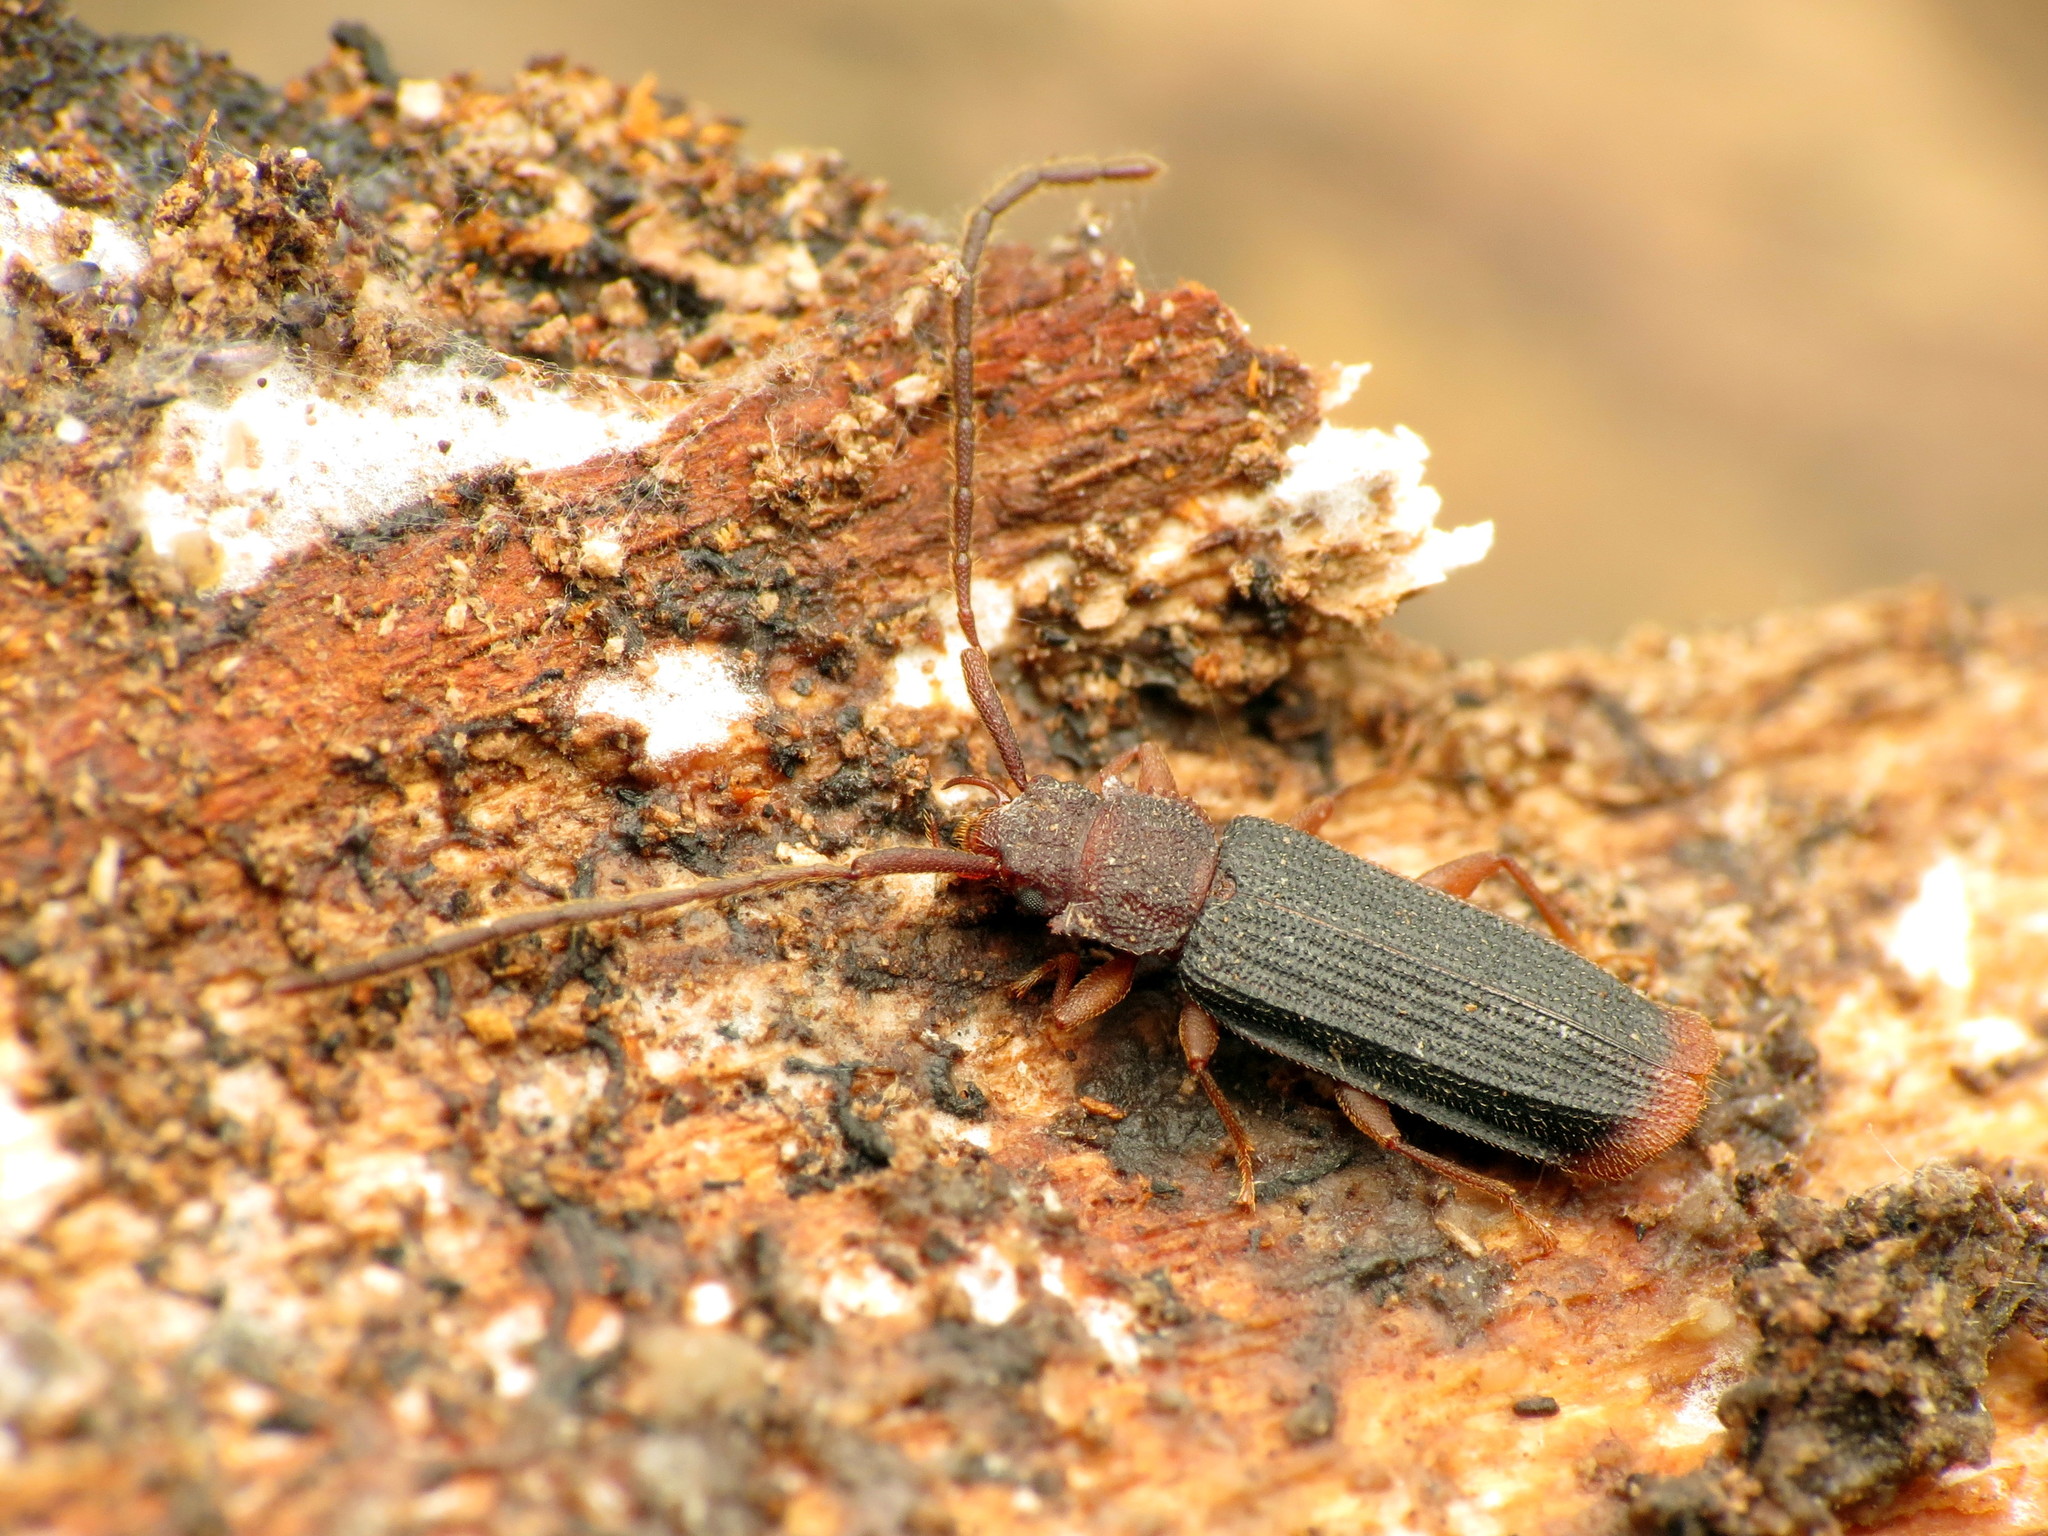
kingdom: Animalia
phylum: Arthropoda
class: Insecta
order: Coleoptera
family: Silvanidae
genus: Uleiota
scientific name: Uleiota dubia
